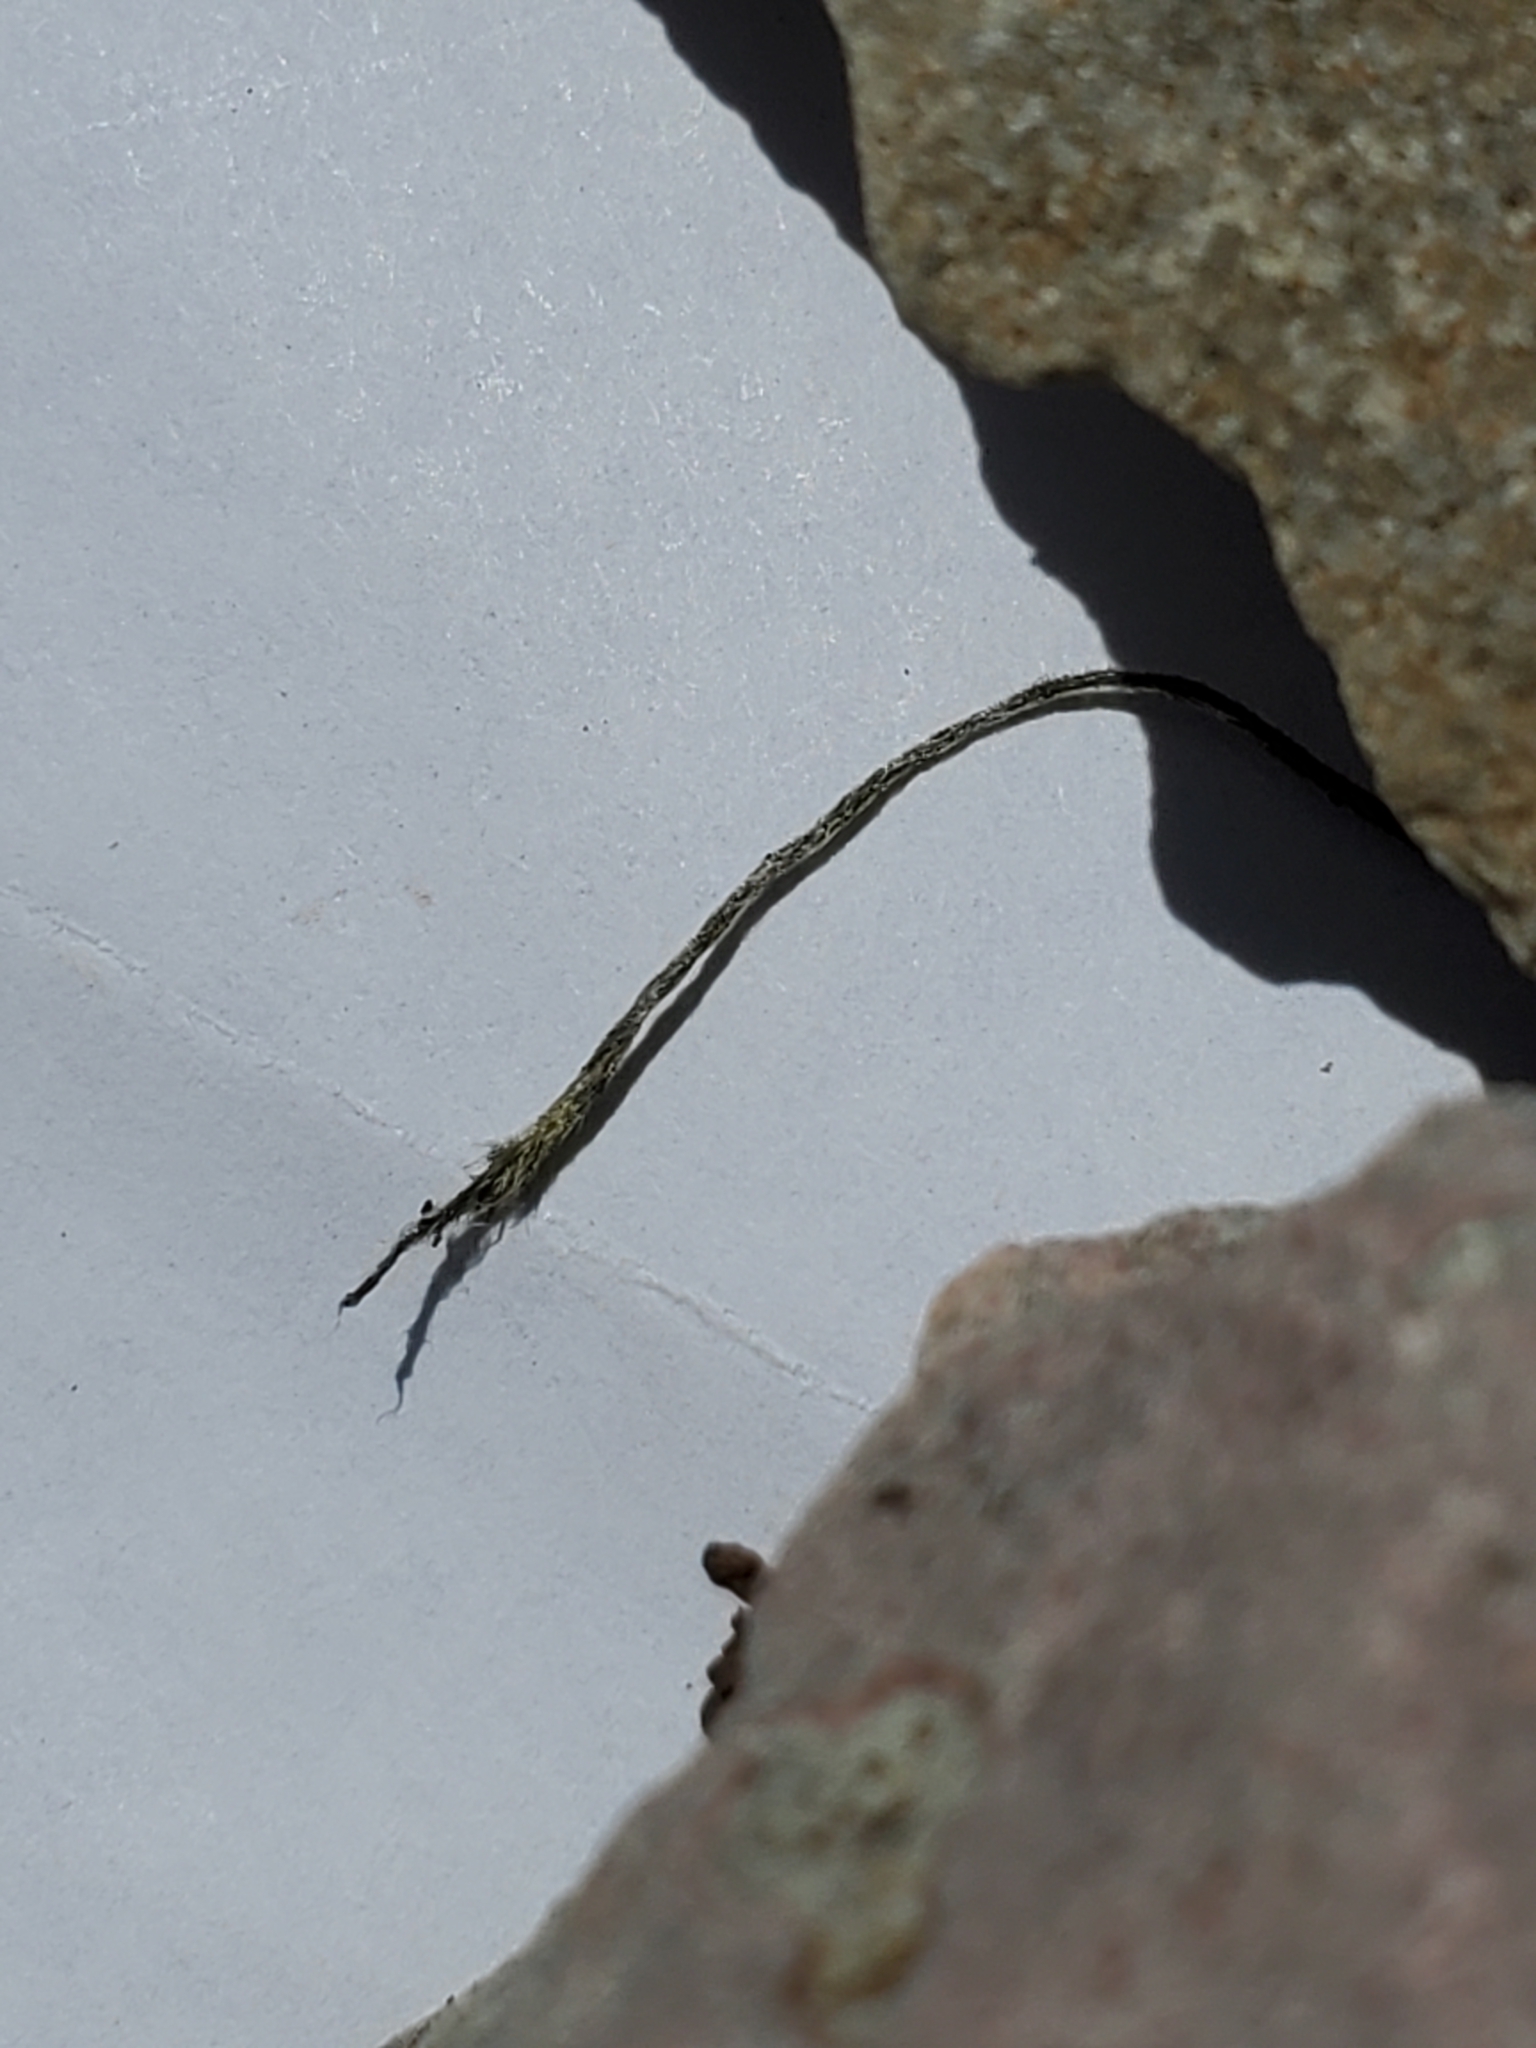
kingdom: Plantae
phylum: Tracheophyta
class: Magnoliopsida
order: Ranunculales
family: Ranunculaceae
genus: Anemone
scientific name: Anemone edwardsiana
